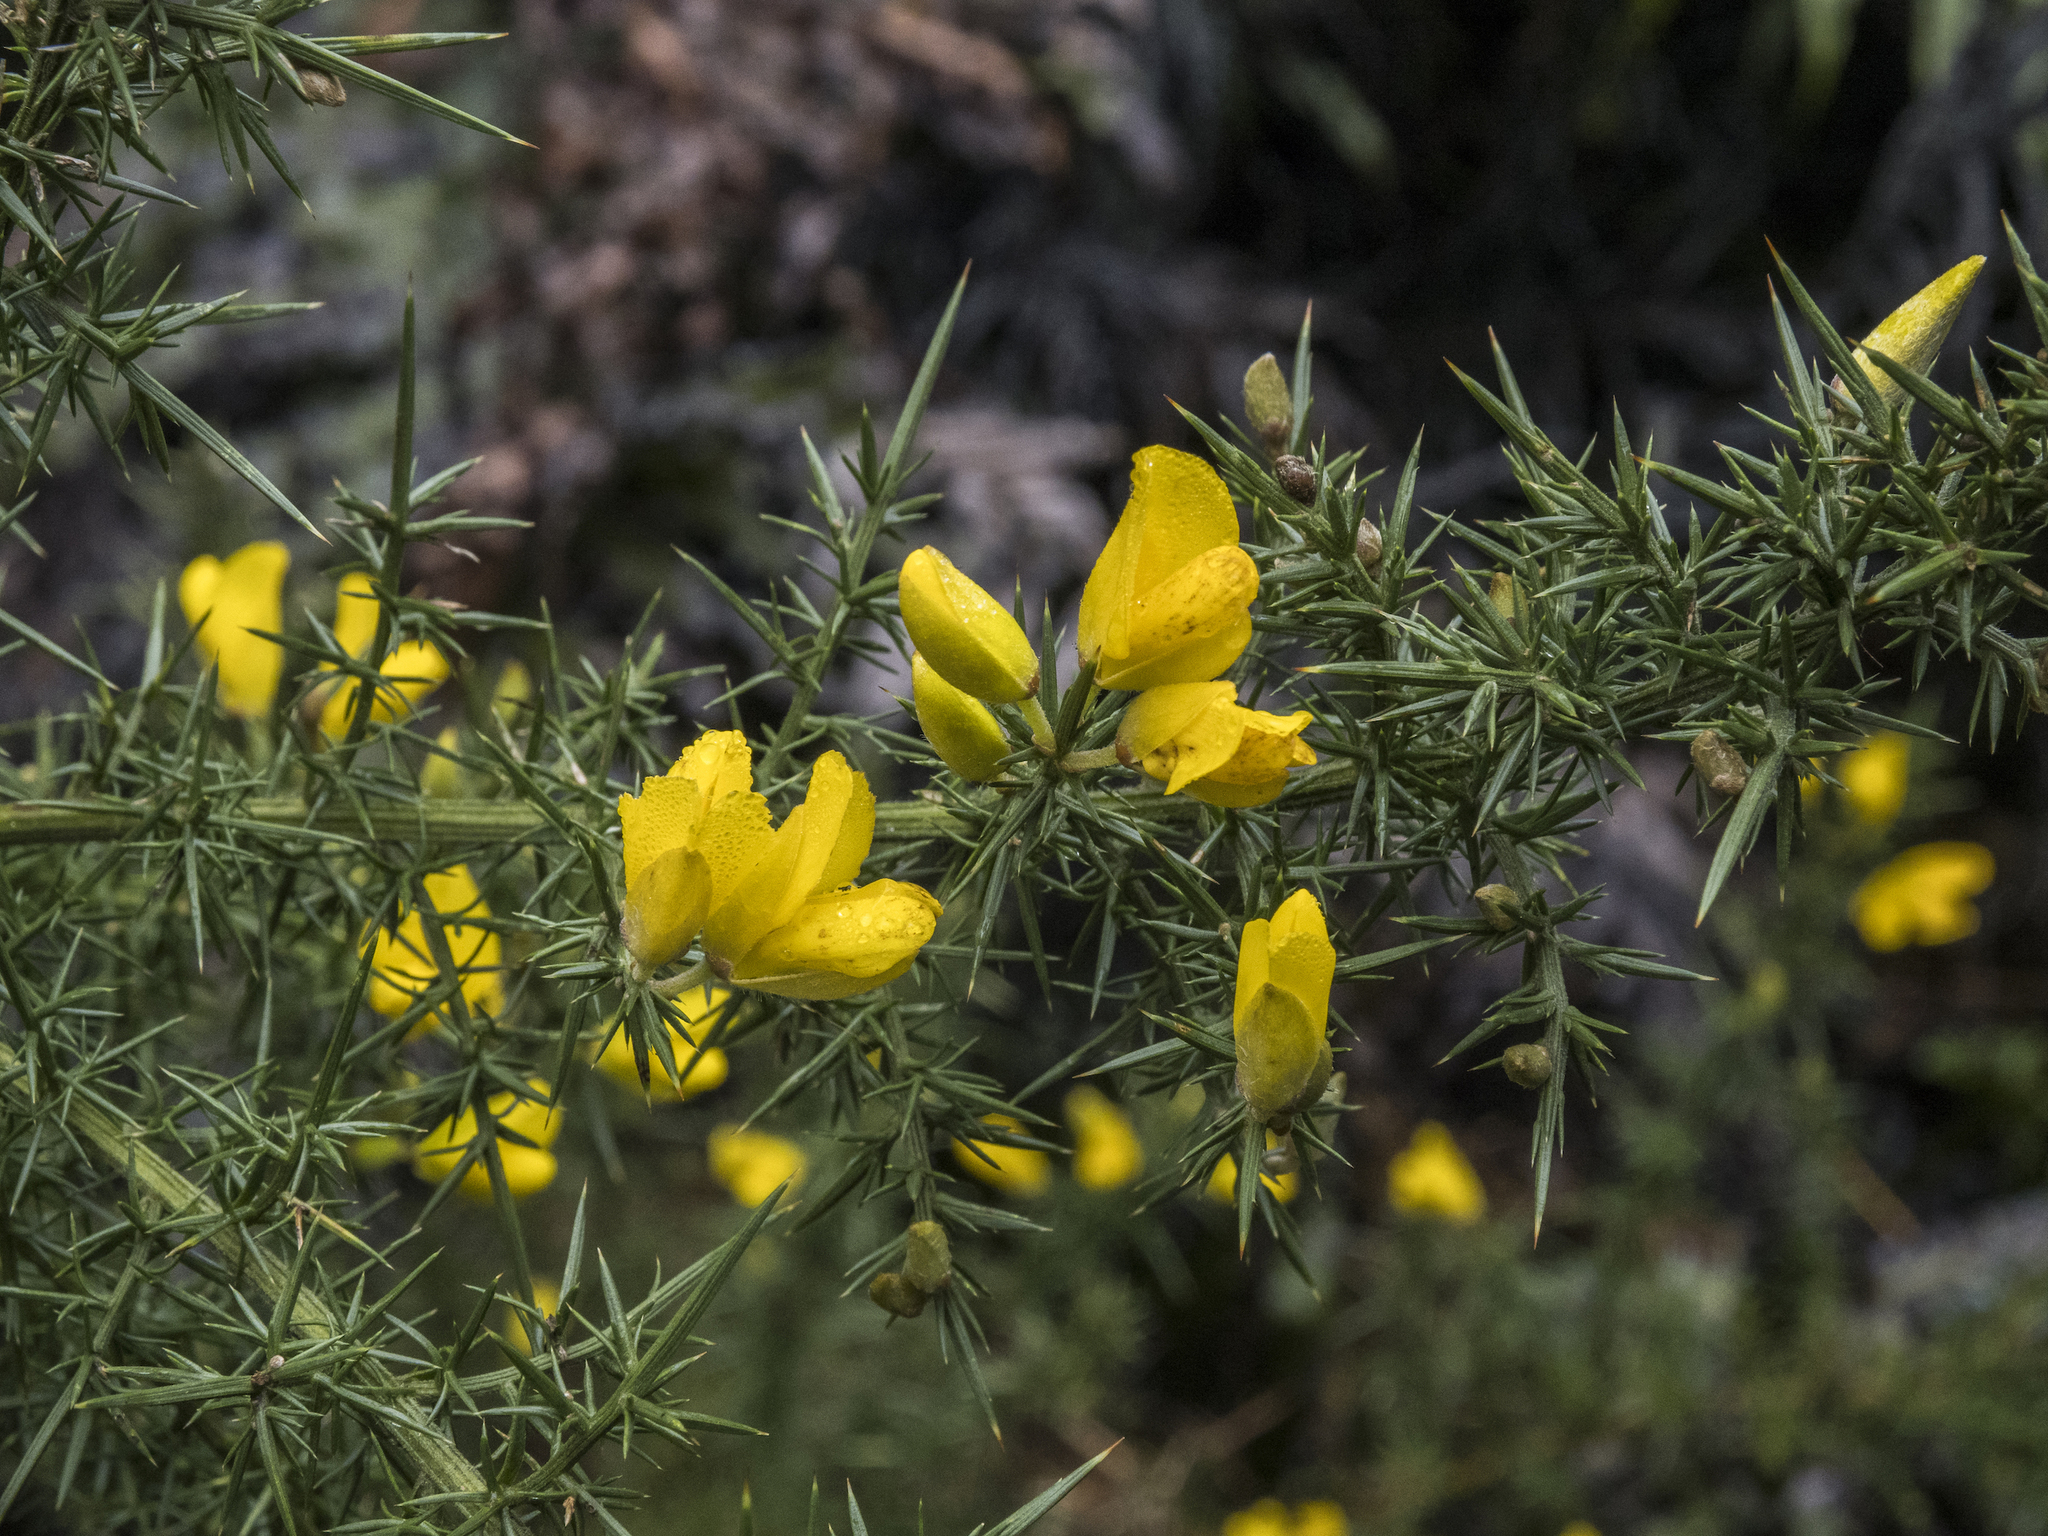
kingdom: Plantae
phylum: Tracheophyta
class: Magnoliopsida
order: Fabales
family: Fabaceae
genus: Ulex
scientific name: Ulex europaeus
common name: Common gorse
